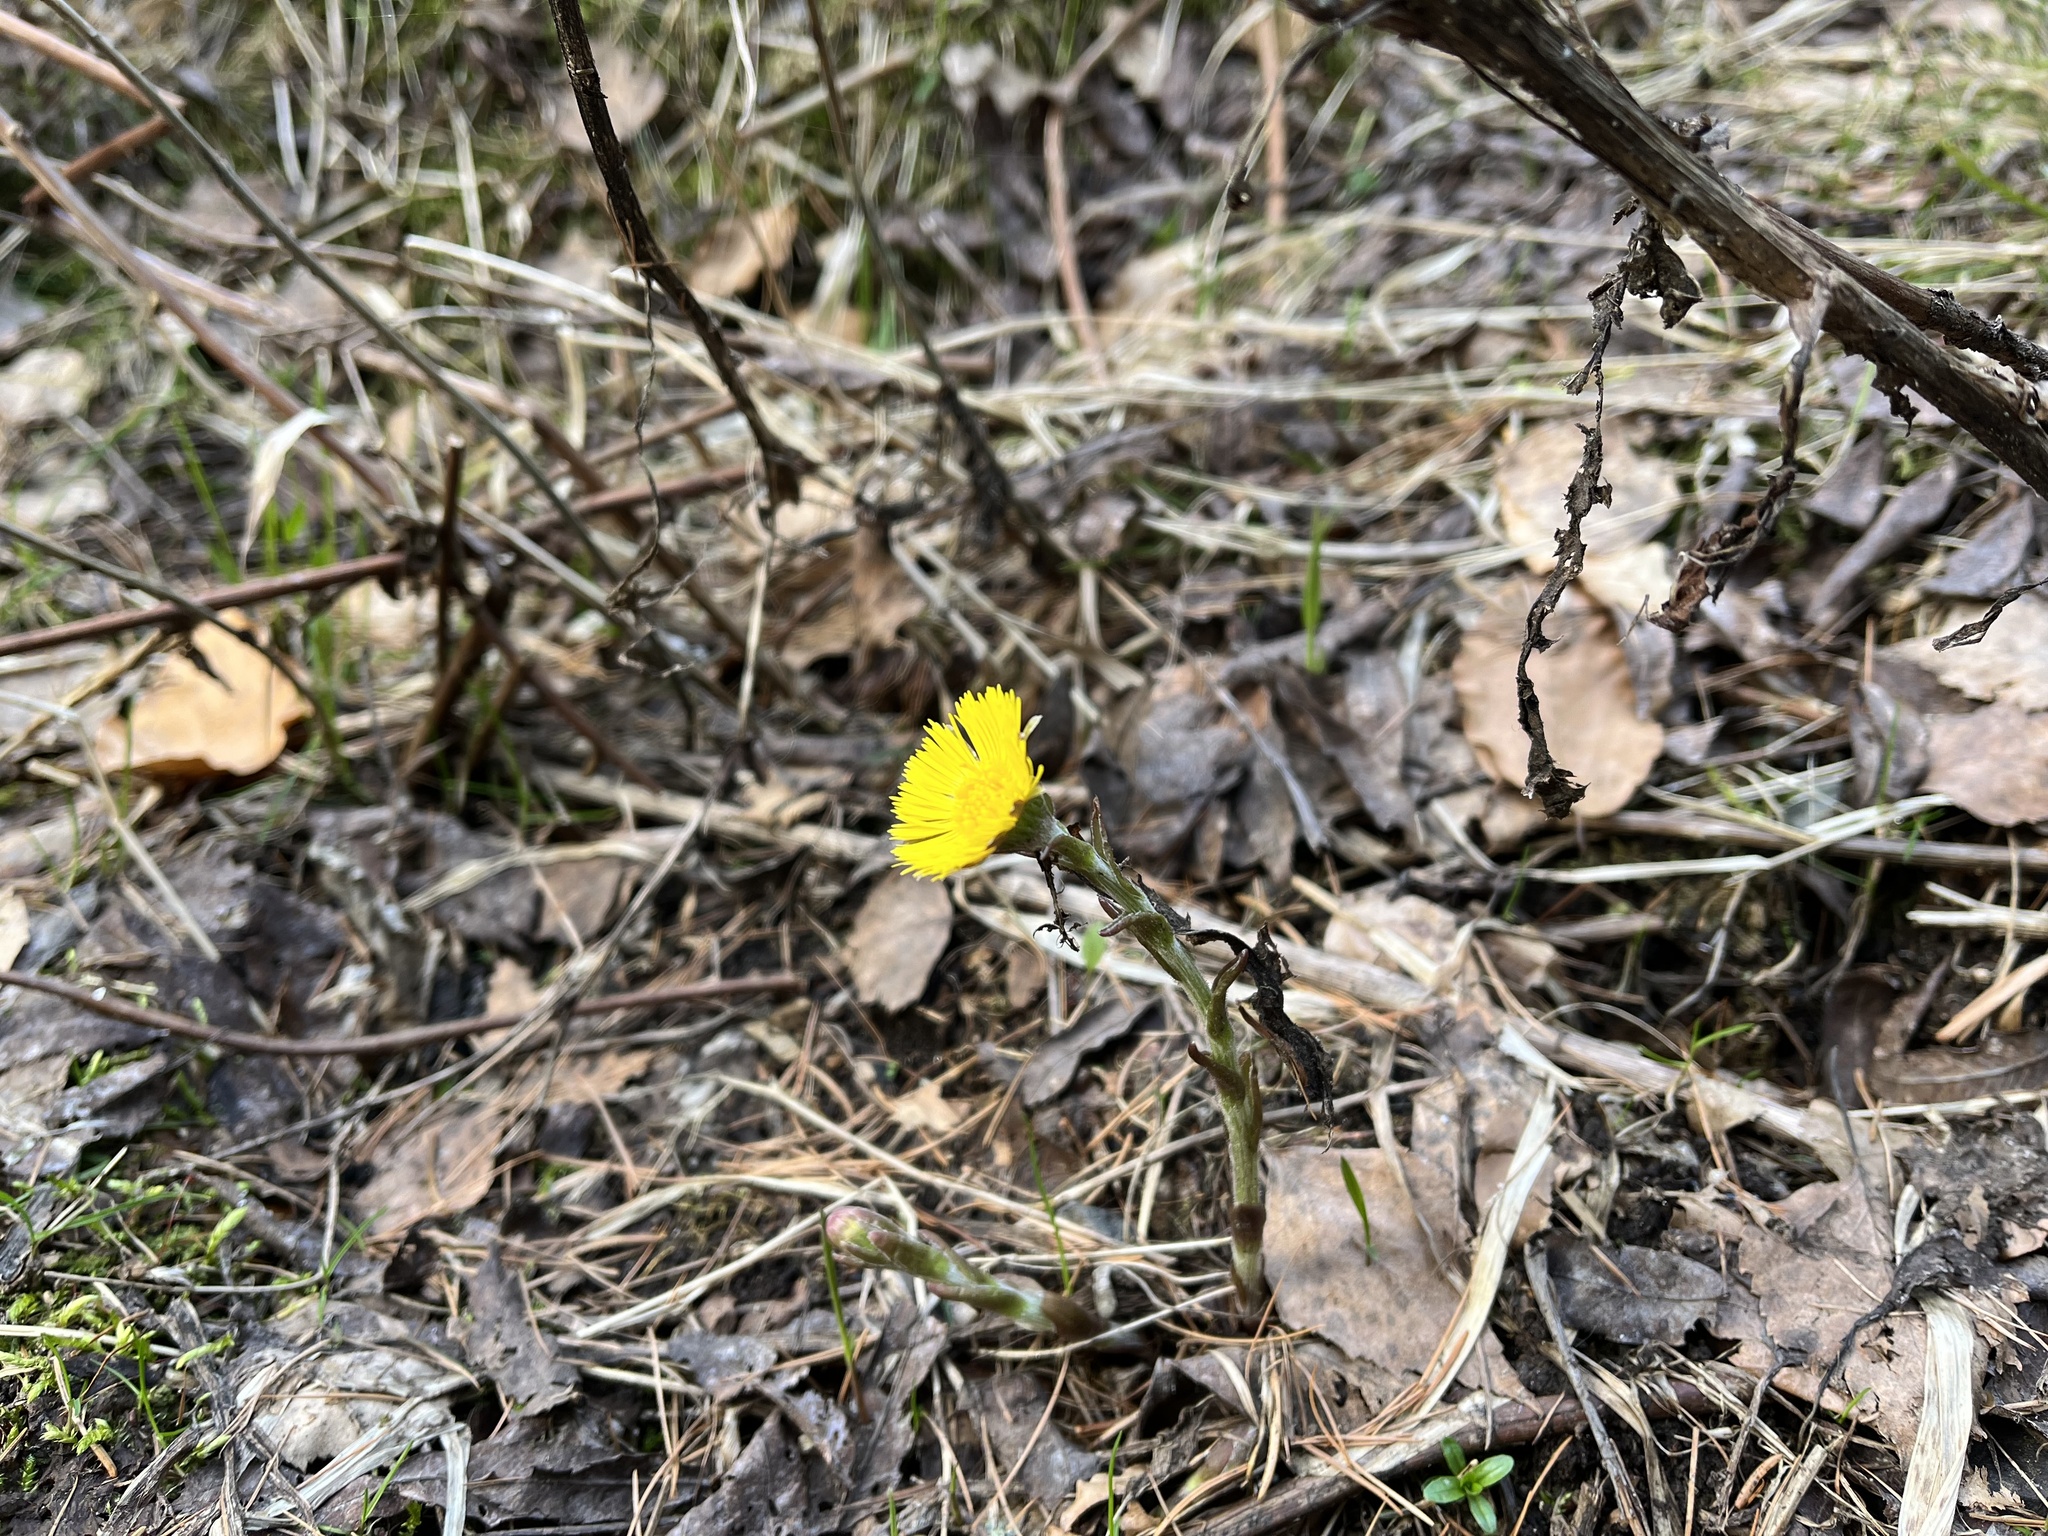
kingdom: Plantae
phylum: Tracheophyta
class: Magnoliopsida
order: Asterales
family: Asteraceae
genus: Tussilago
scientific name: Tussilago farfara
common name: Coltsfoot
